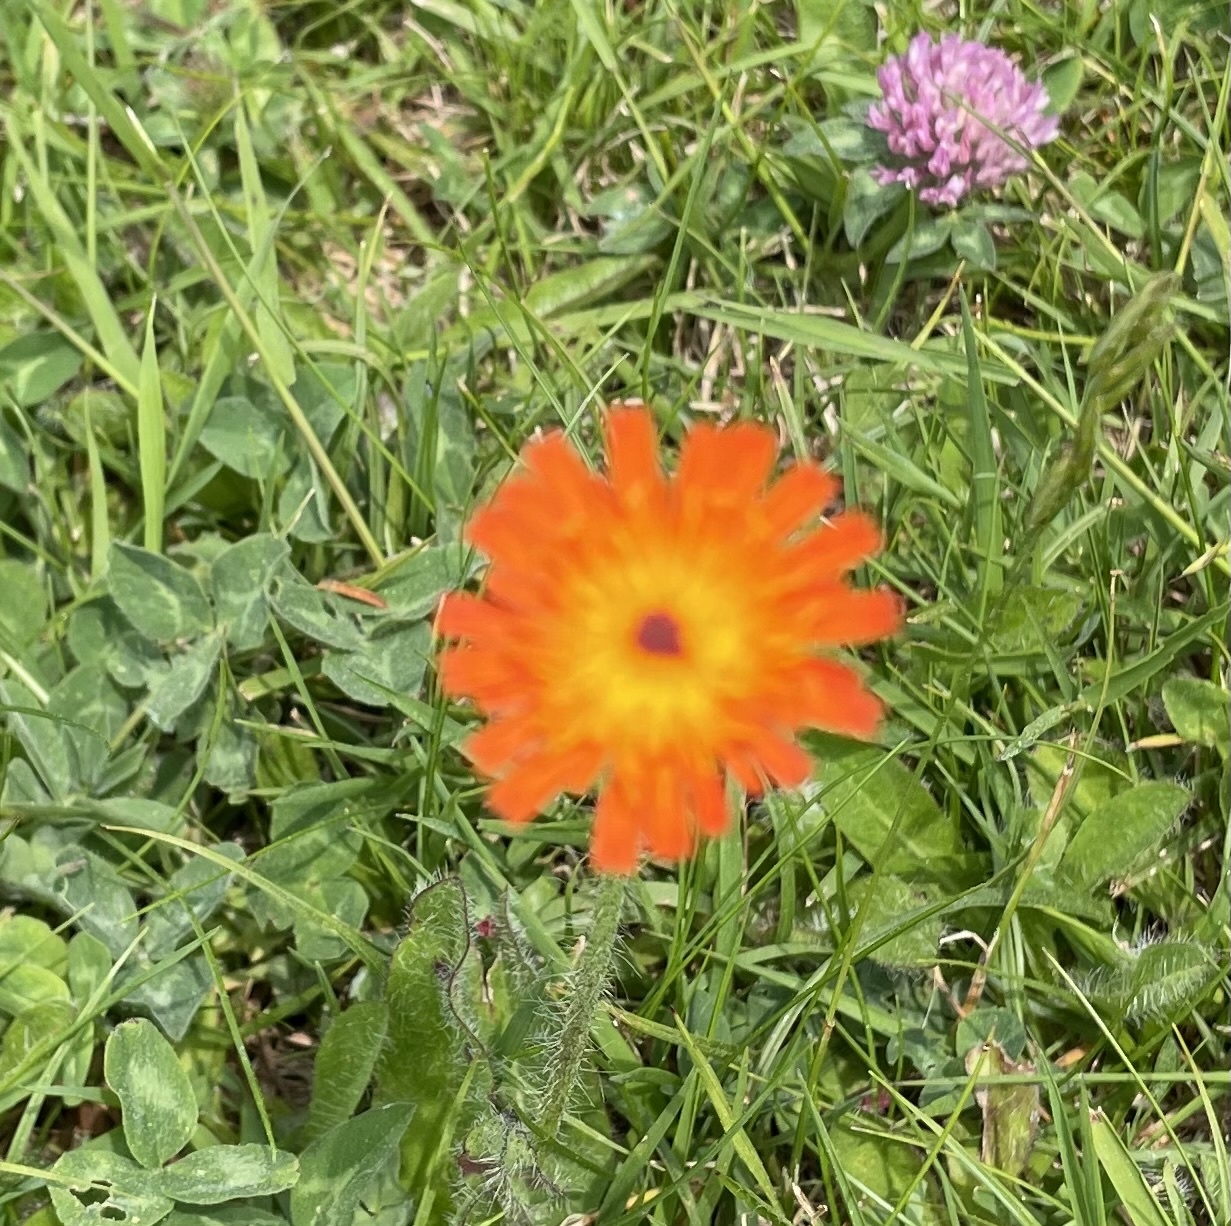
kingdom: Plantae
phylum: Tracheophyta
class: Magnoliopsida
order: Asterales
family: Asteraceae
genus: Pilosella
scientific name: Pilosella aurantiaca
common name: Fox-and-cubs
